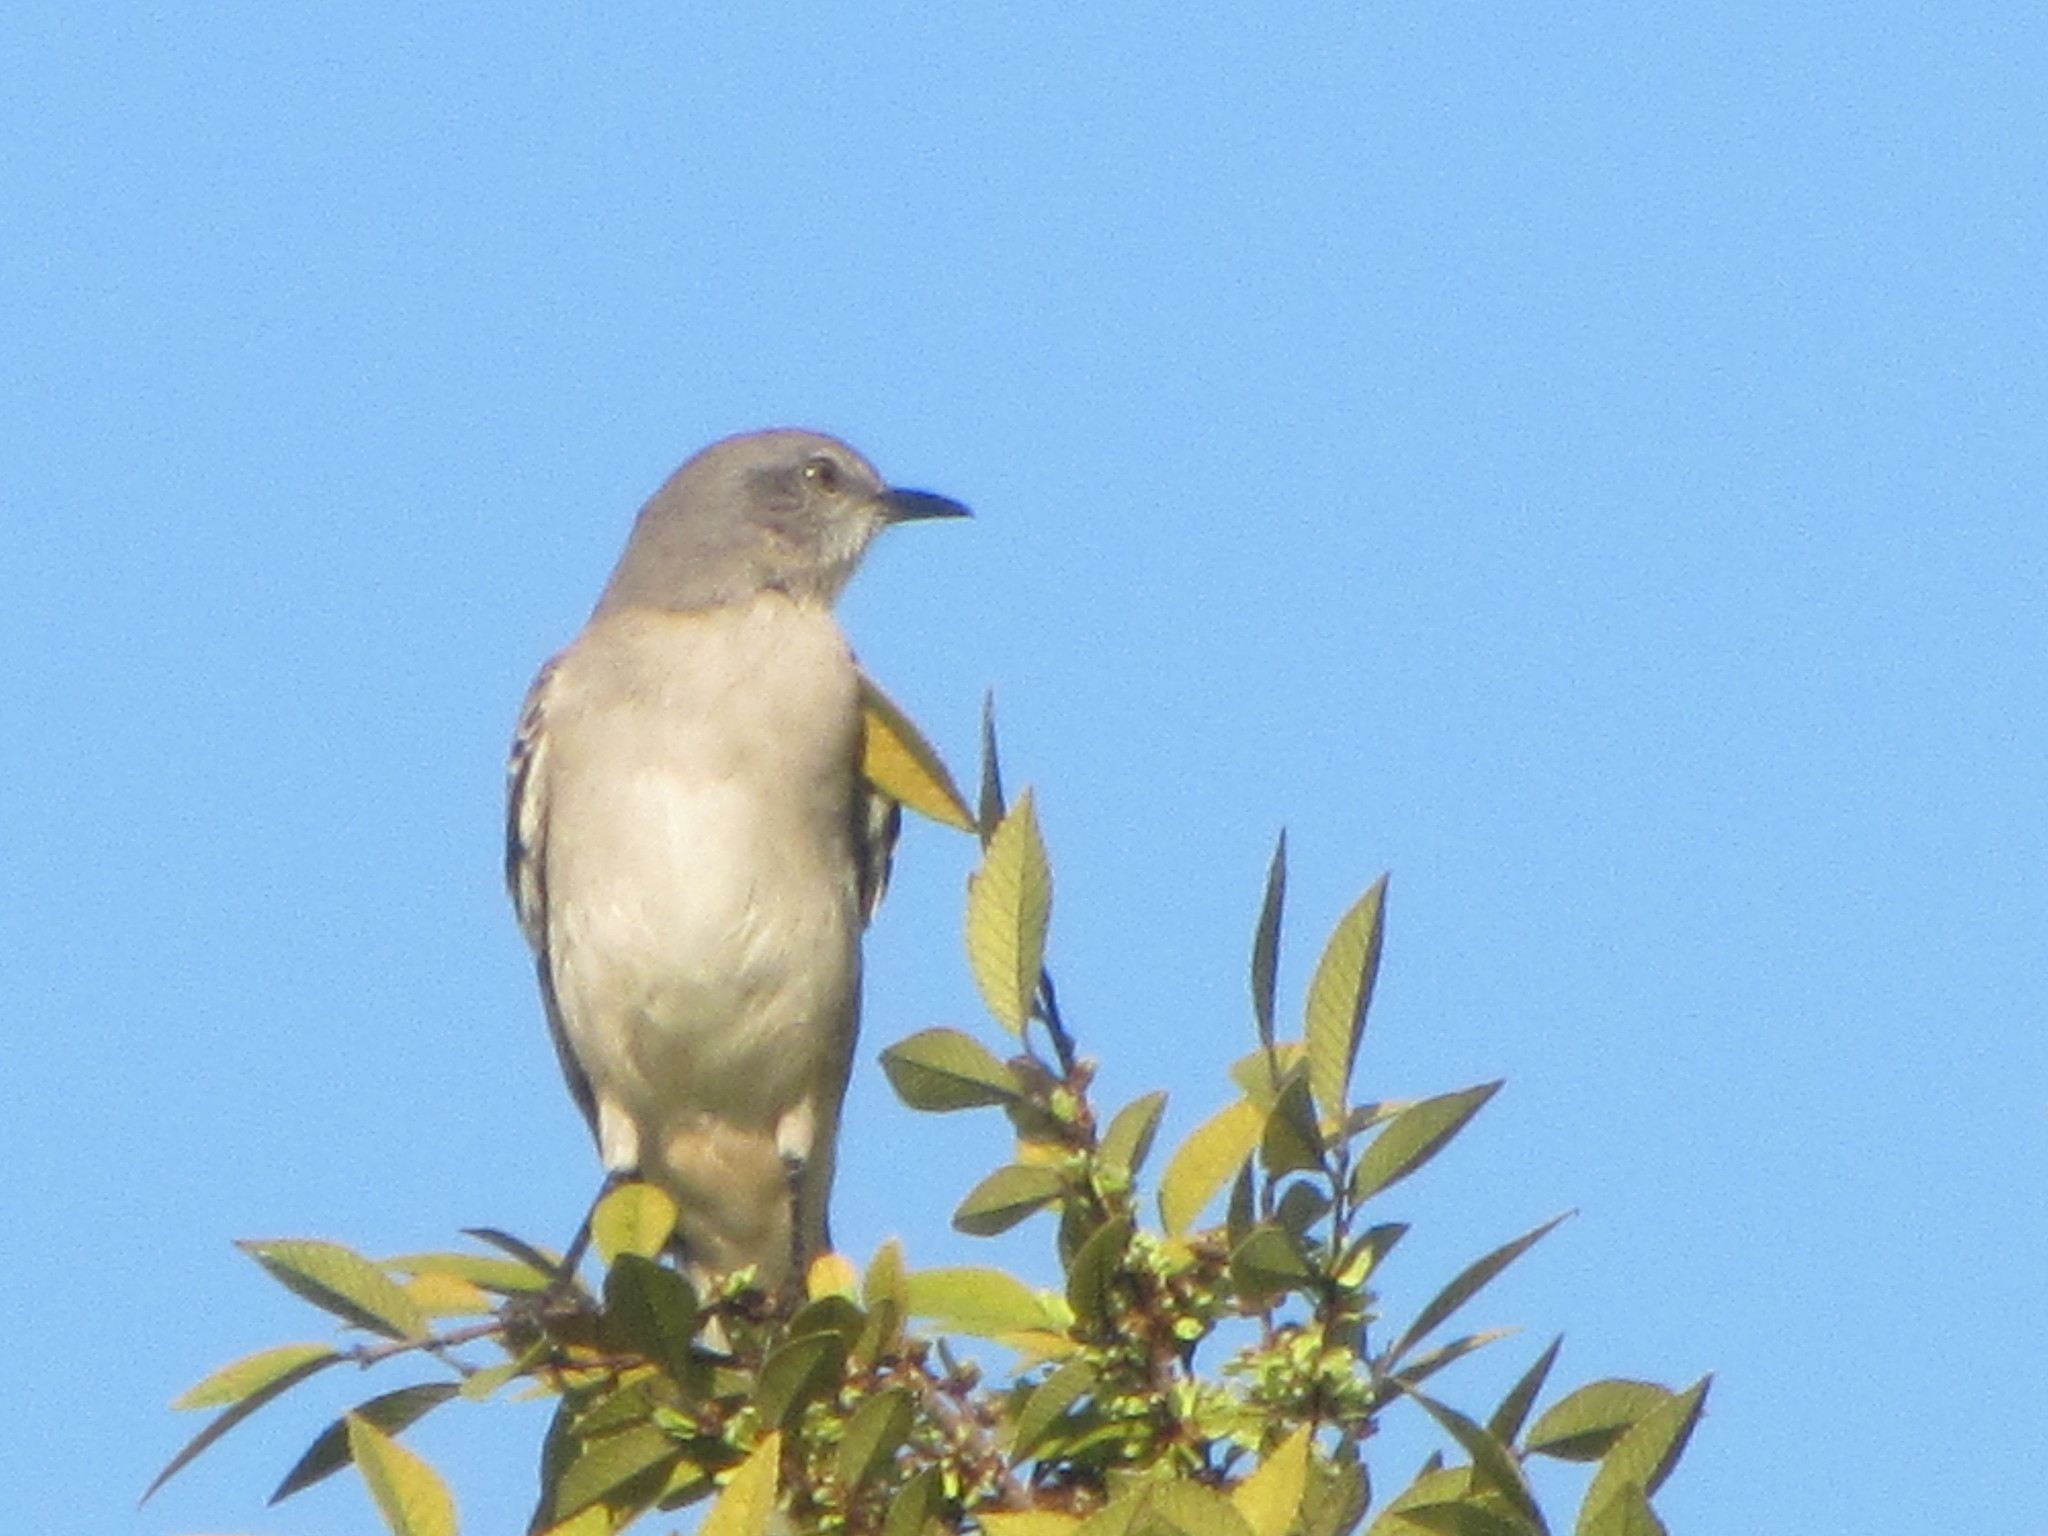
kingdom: Animalia
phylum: Chordata
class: Aves
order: Passeriformes
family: Mimidae
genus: Mimus
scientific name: Mimus polyglottos
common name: Northern mockingbird
